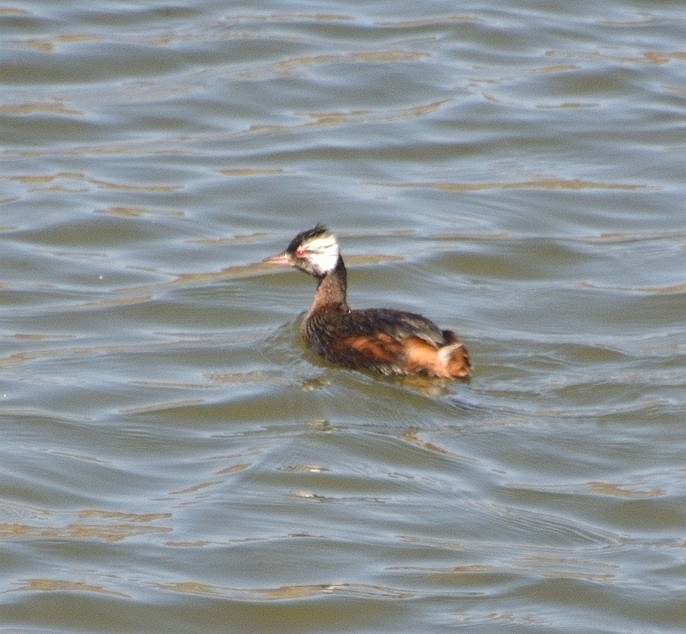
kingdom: Animalia
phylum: Chordata
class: Aves
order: Podicipediformes
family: Podicipedidae
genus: Rollandia
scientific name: Rollandia rolland
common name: White-tufted grebe
